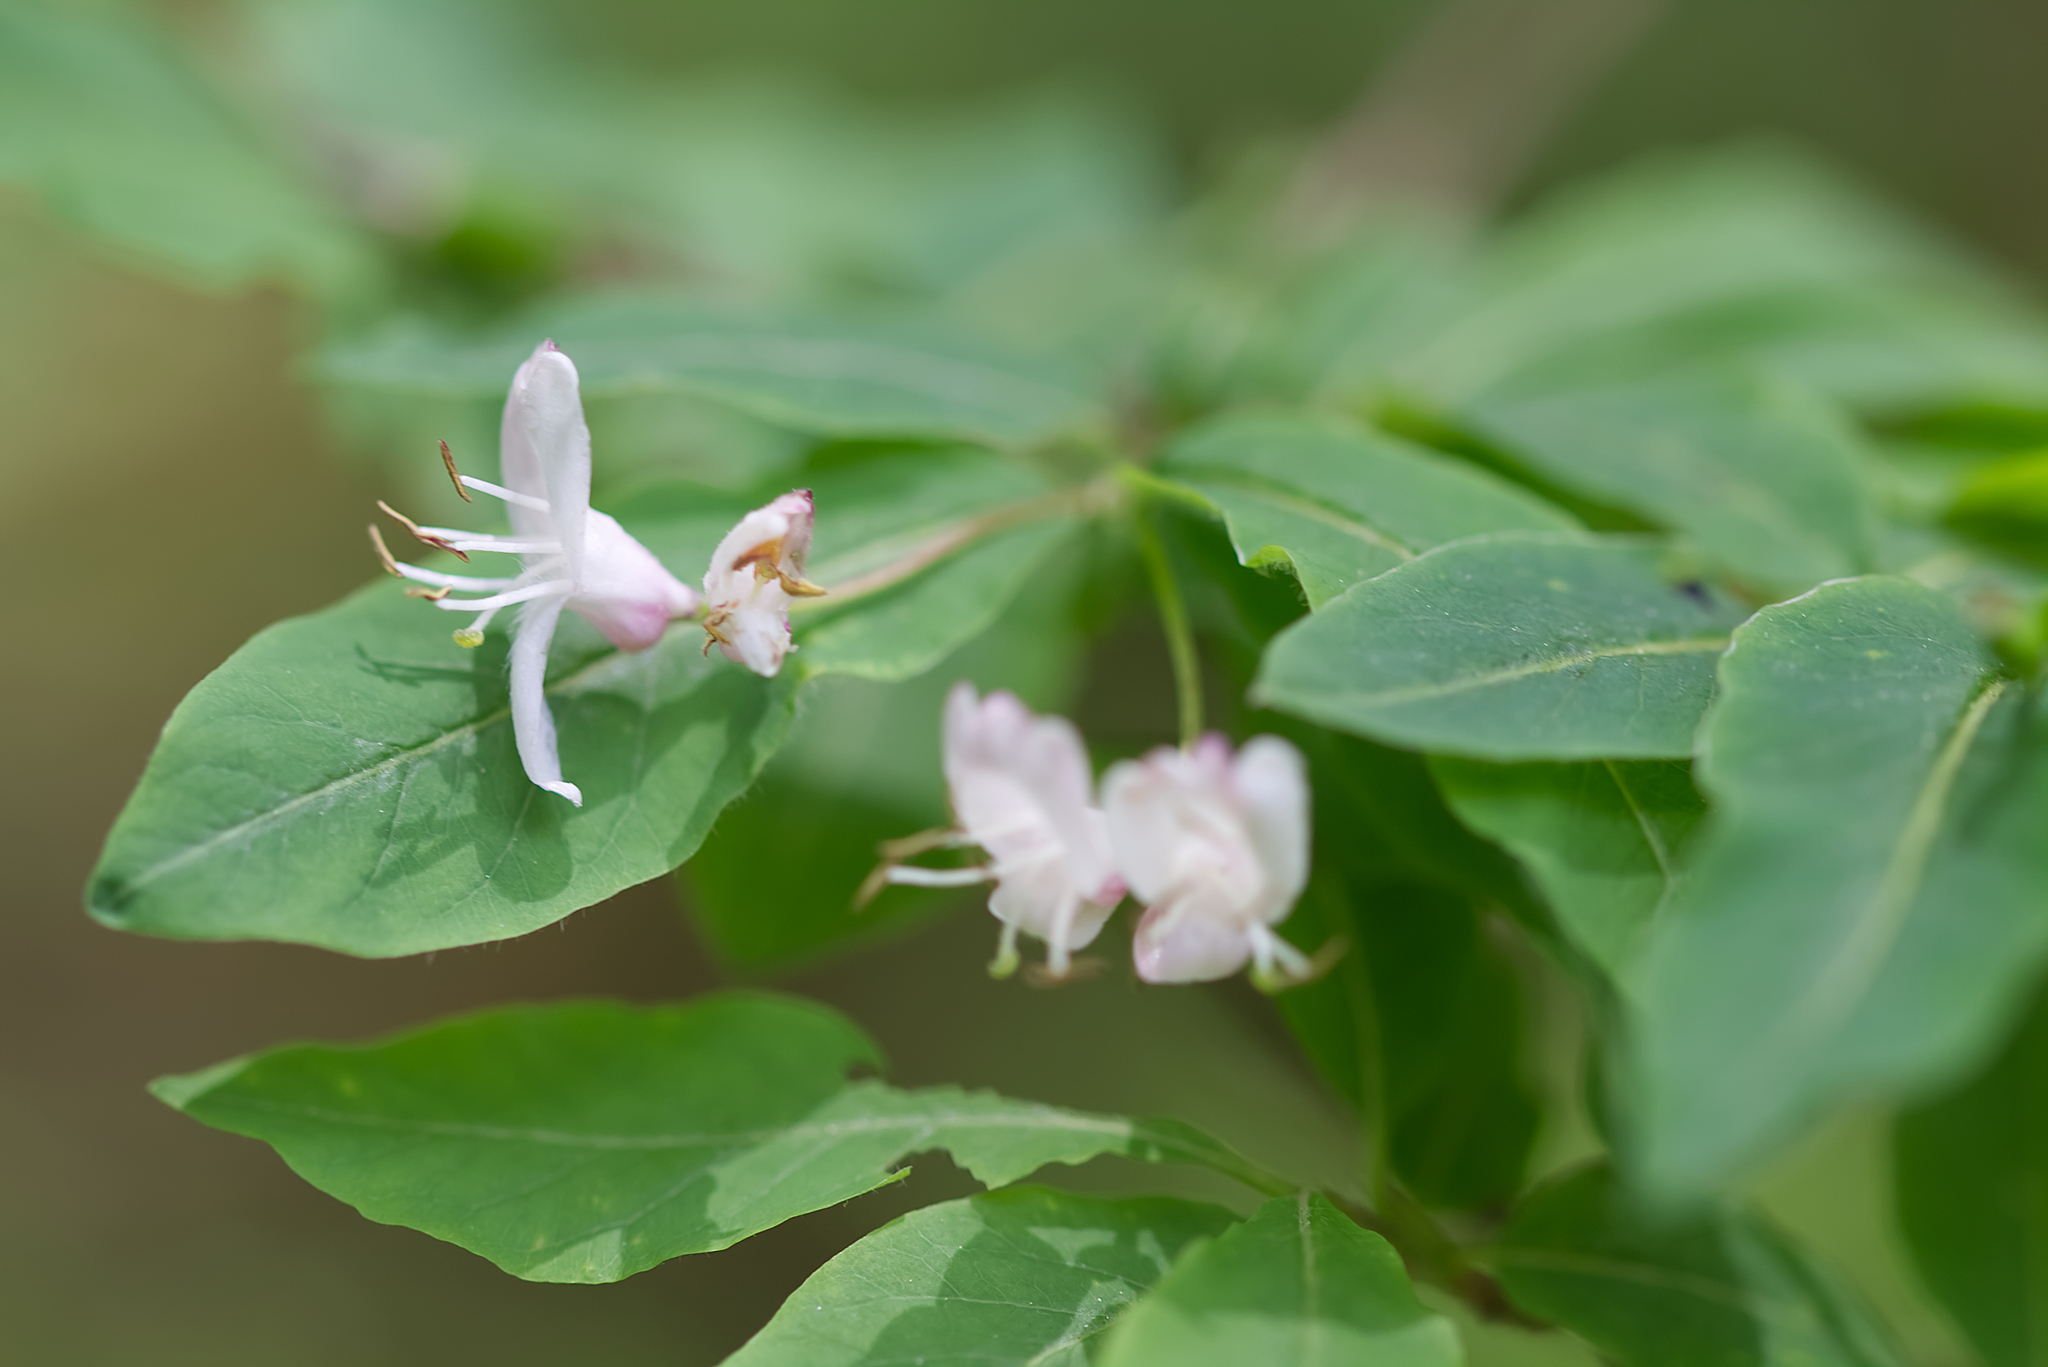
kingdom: Plantae
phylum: Tracheophyta
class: Magnoliopsida
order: Dipsacales
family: Caprifoliaceae
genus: Lonicera
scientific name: Lonicera nigra
